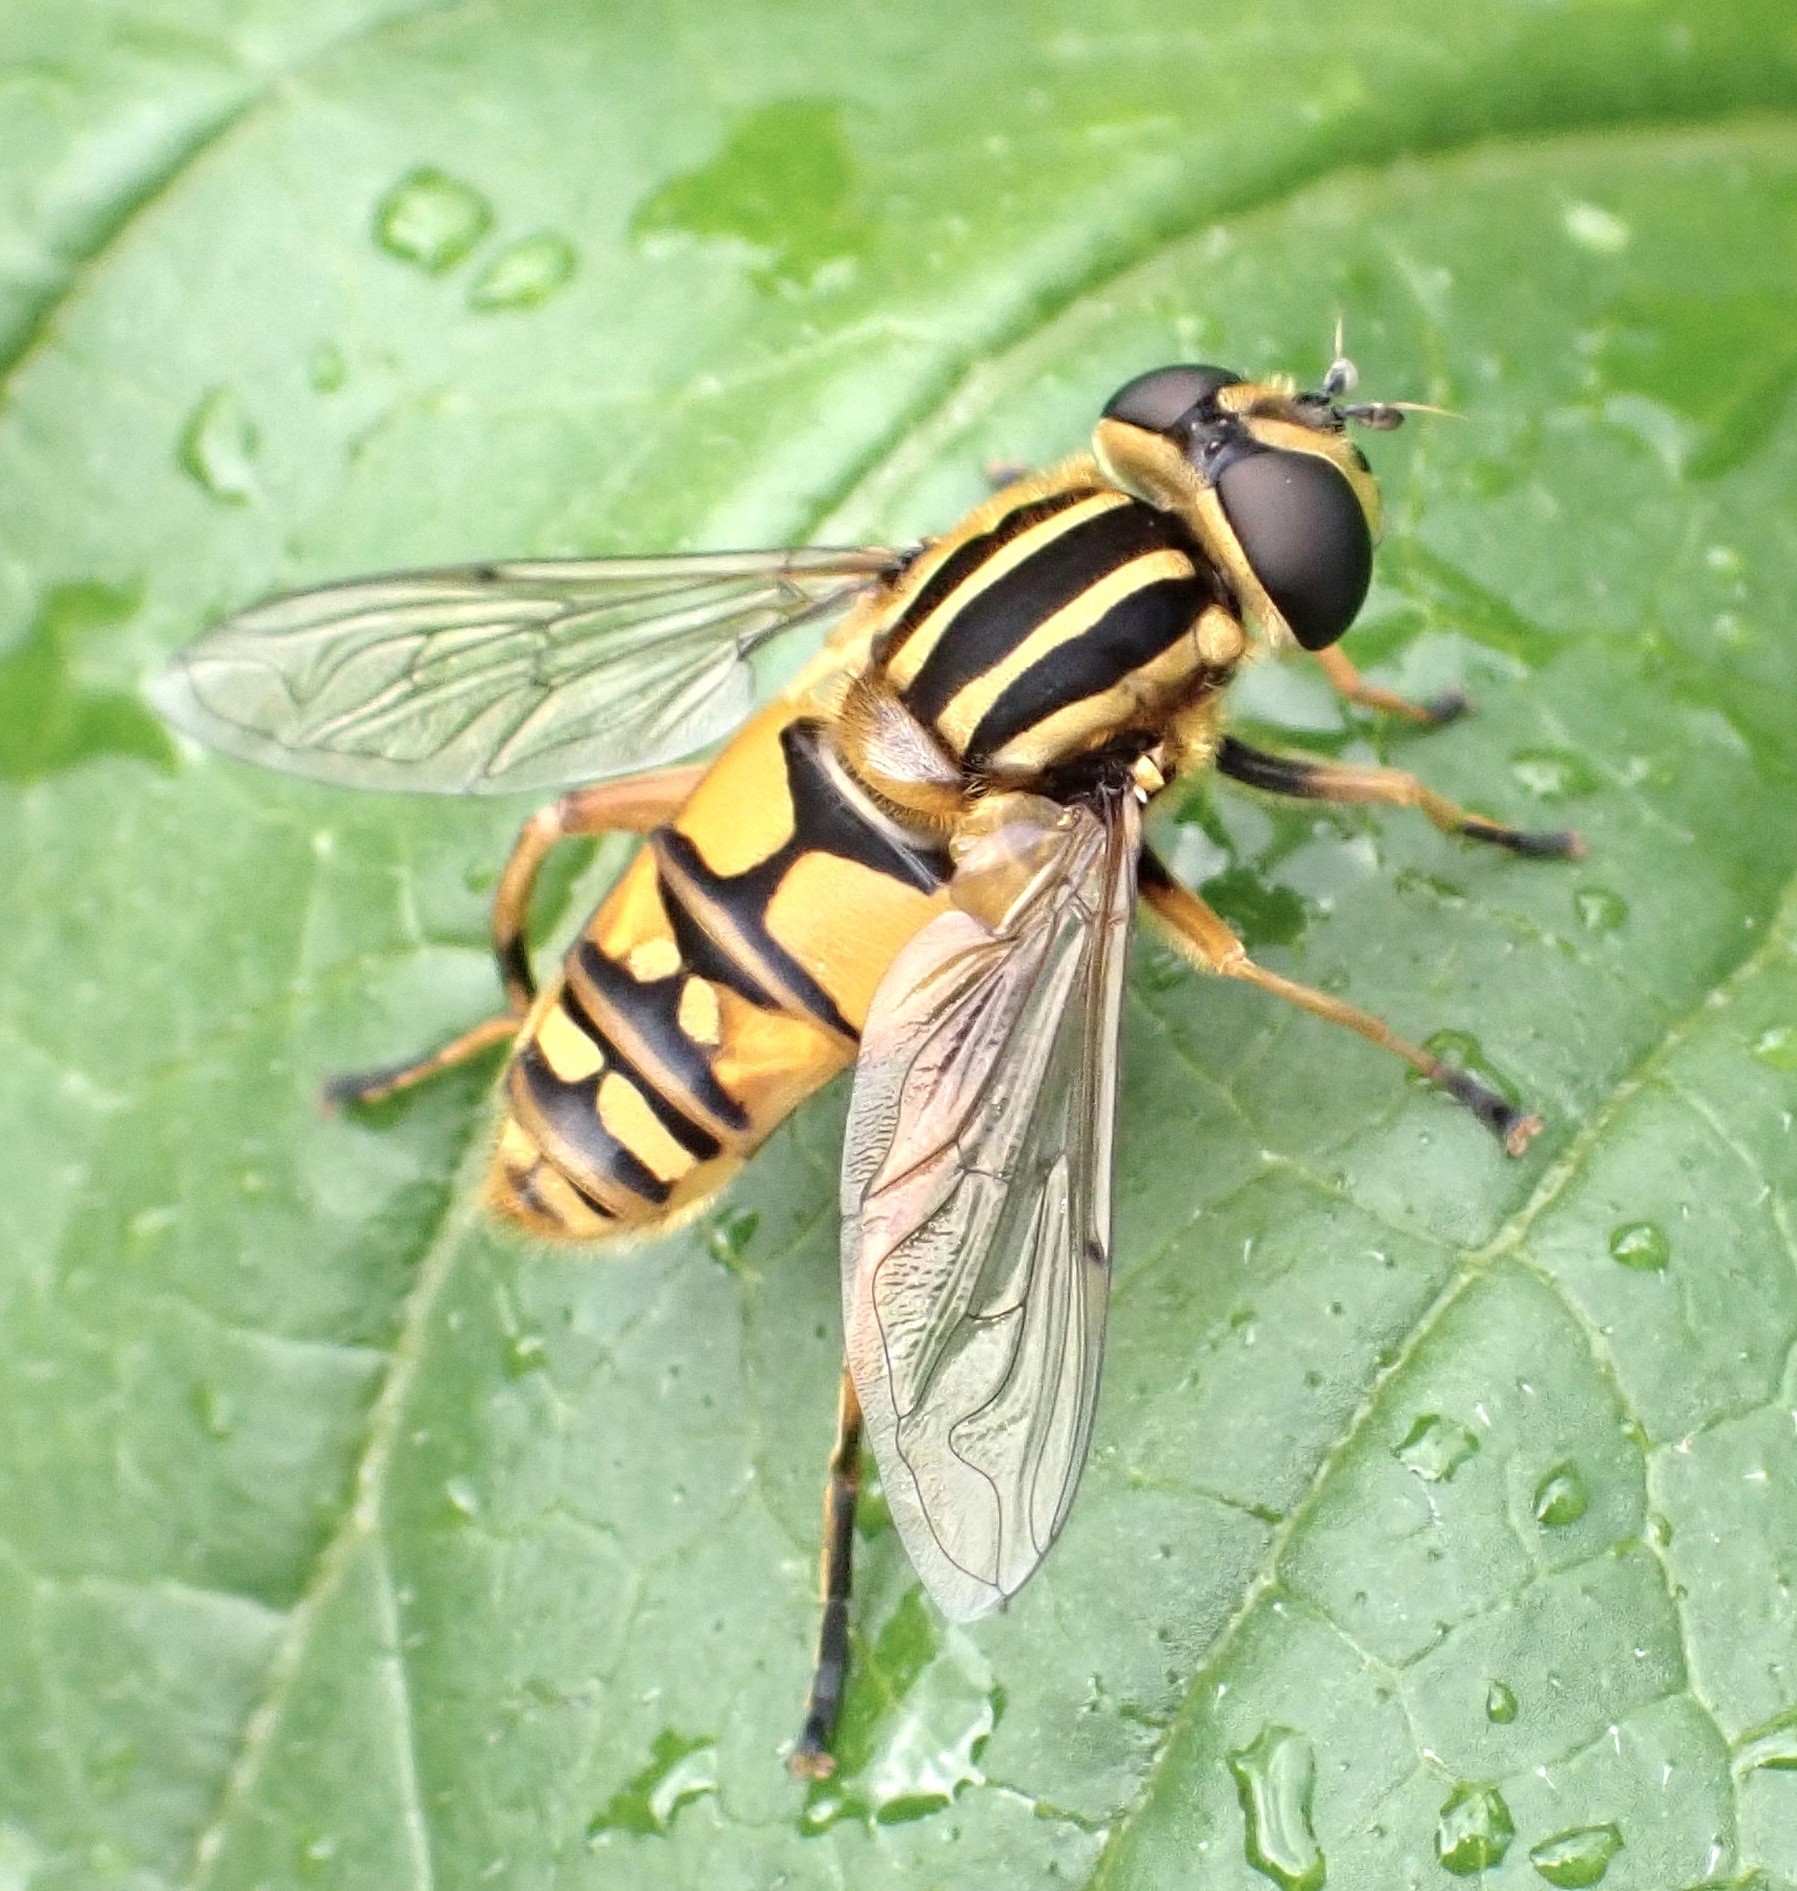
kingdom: Animalia
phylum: Arthropoda
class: Insecta
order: Diptera
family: Syrphidae
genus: Helophilus
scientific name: Helophilus pendulus
